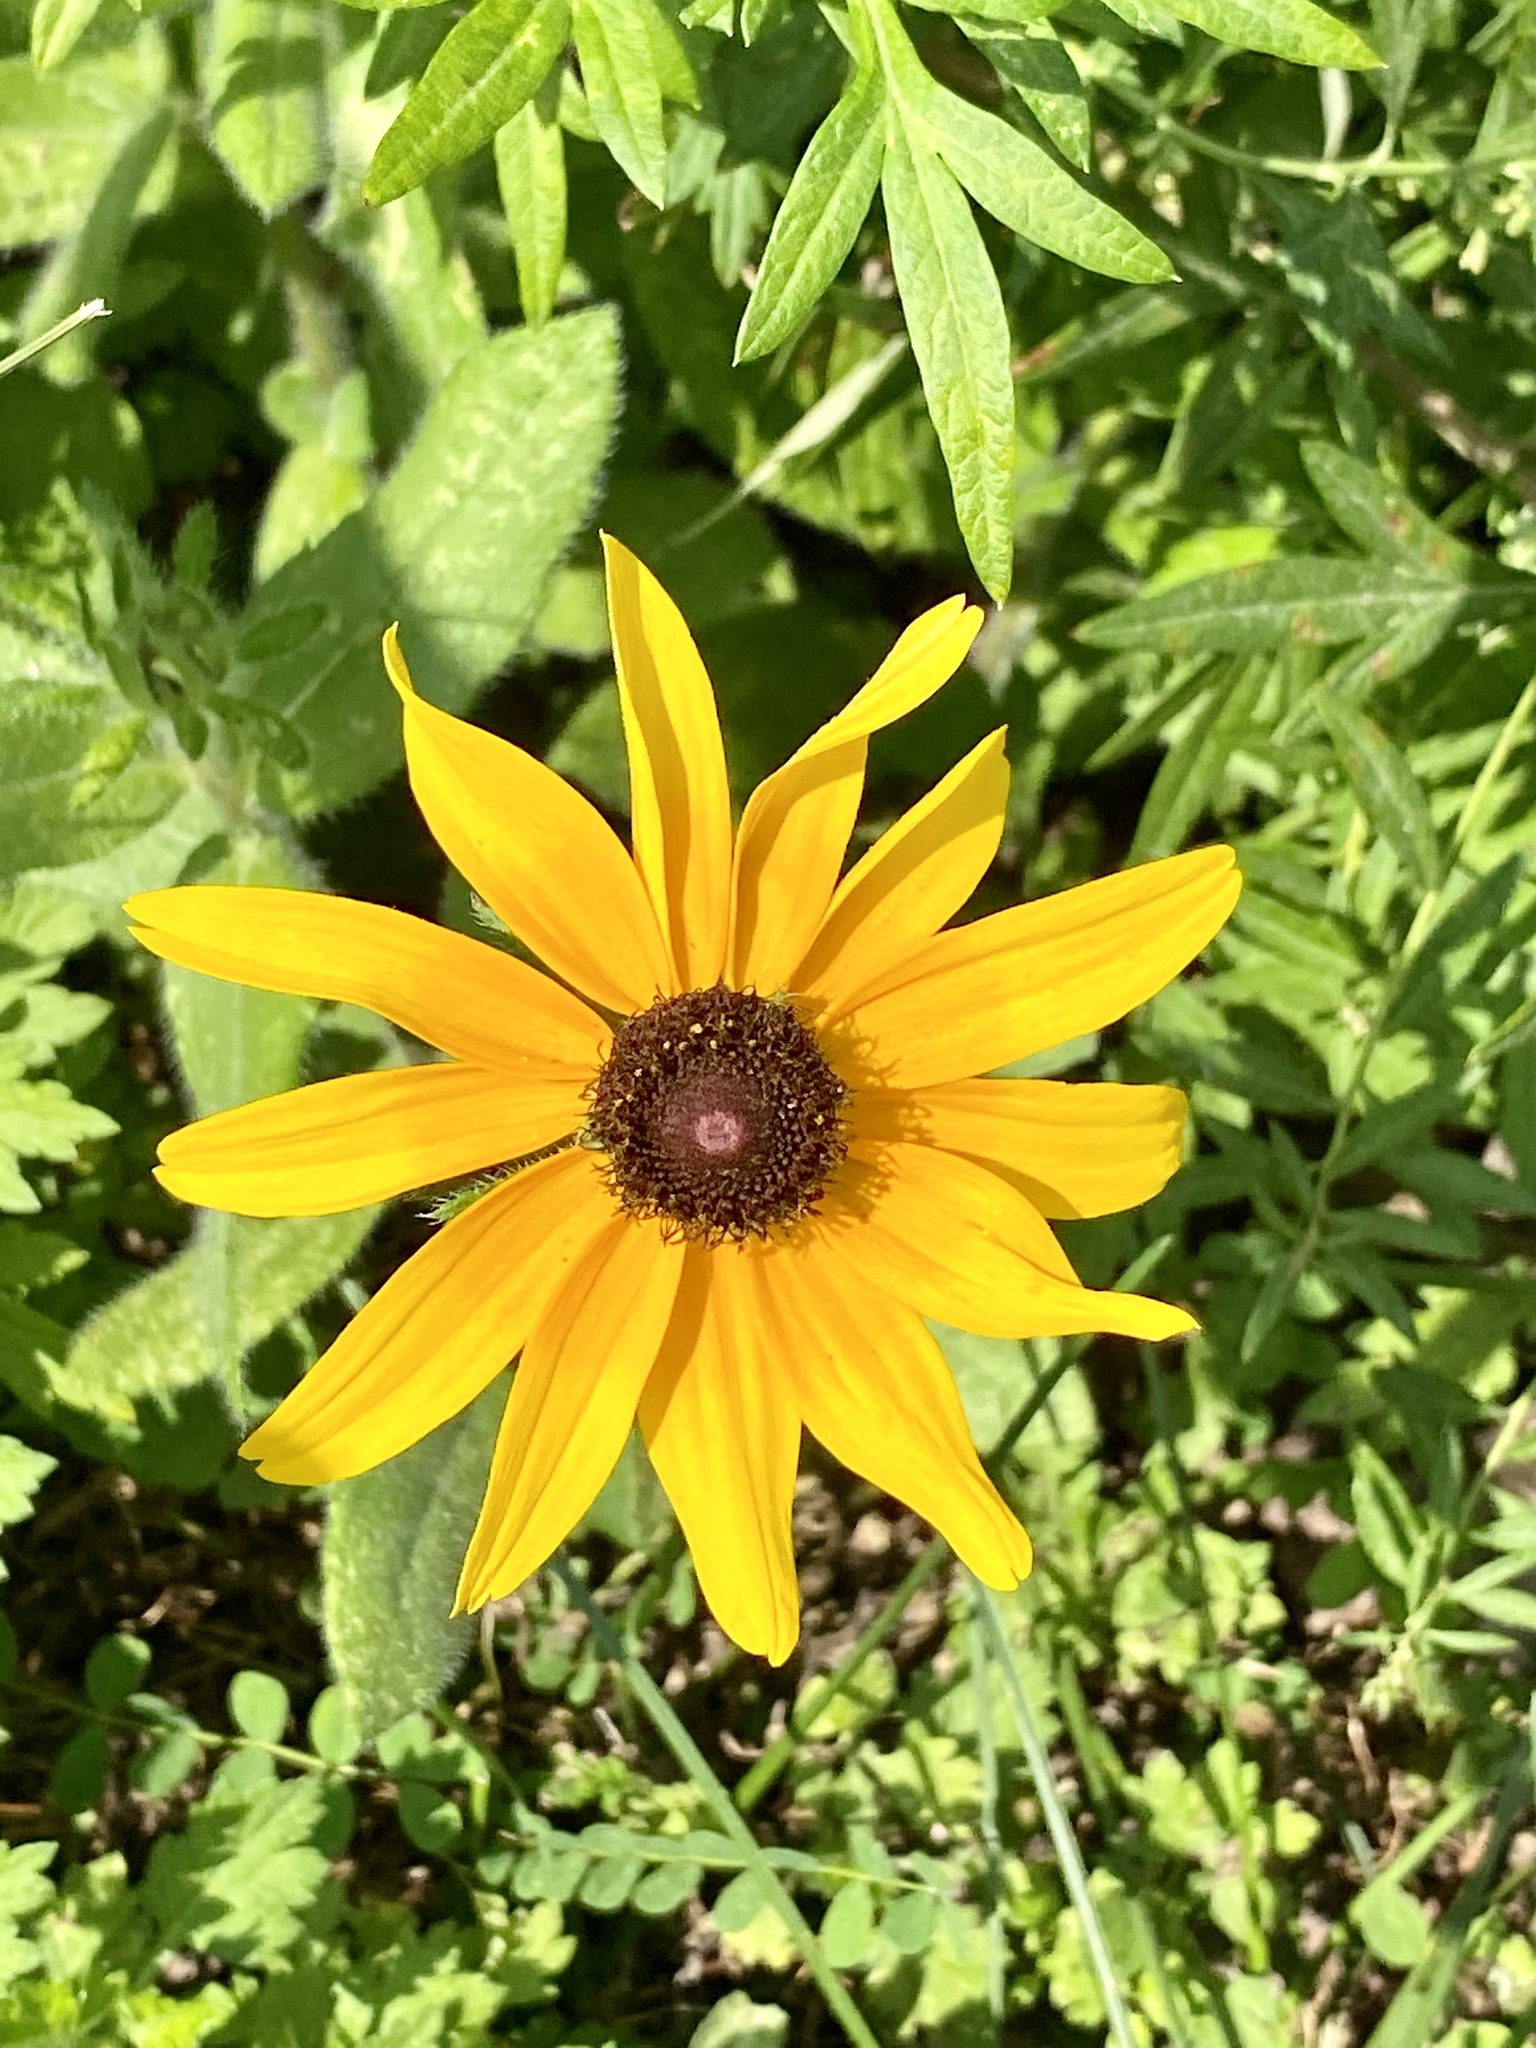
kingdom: Plantae
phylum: Tracheophyta
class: Magnoliopsida
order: Asterales
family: Asteraceae
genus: Rudbeckia
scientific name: Rudbeckia hirta
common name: Black-eyed-susan
